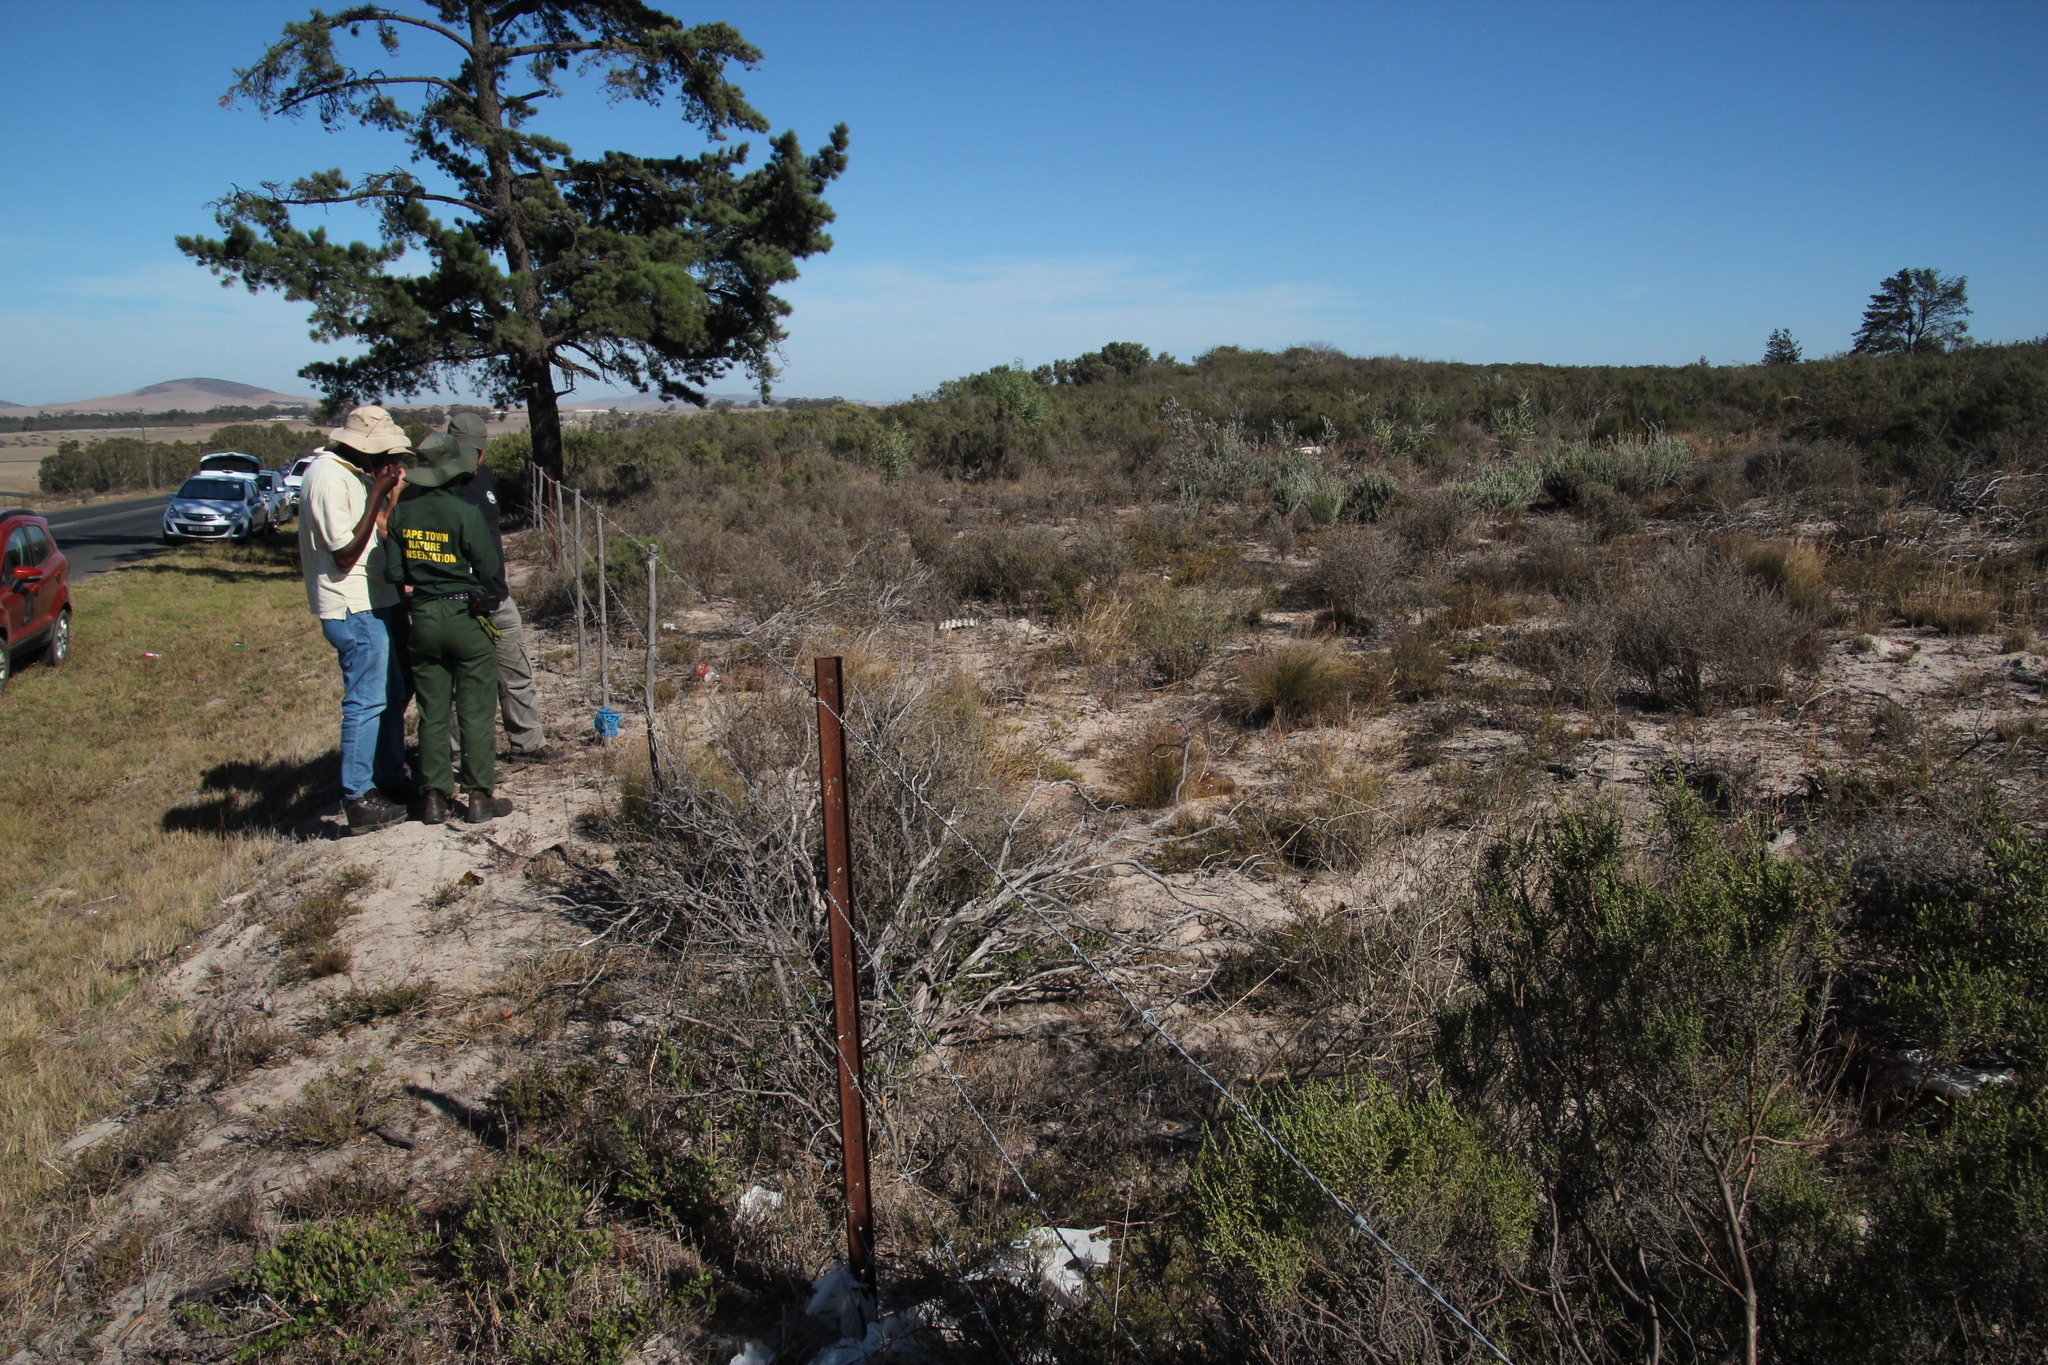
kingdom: Plantae
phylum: Tracheophyta
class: Pinopsida
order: Pinales
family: Pinaceae
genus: Pinus
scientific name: Pinus radiata
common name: Monterey pine
